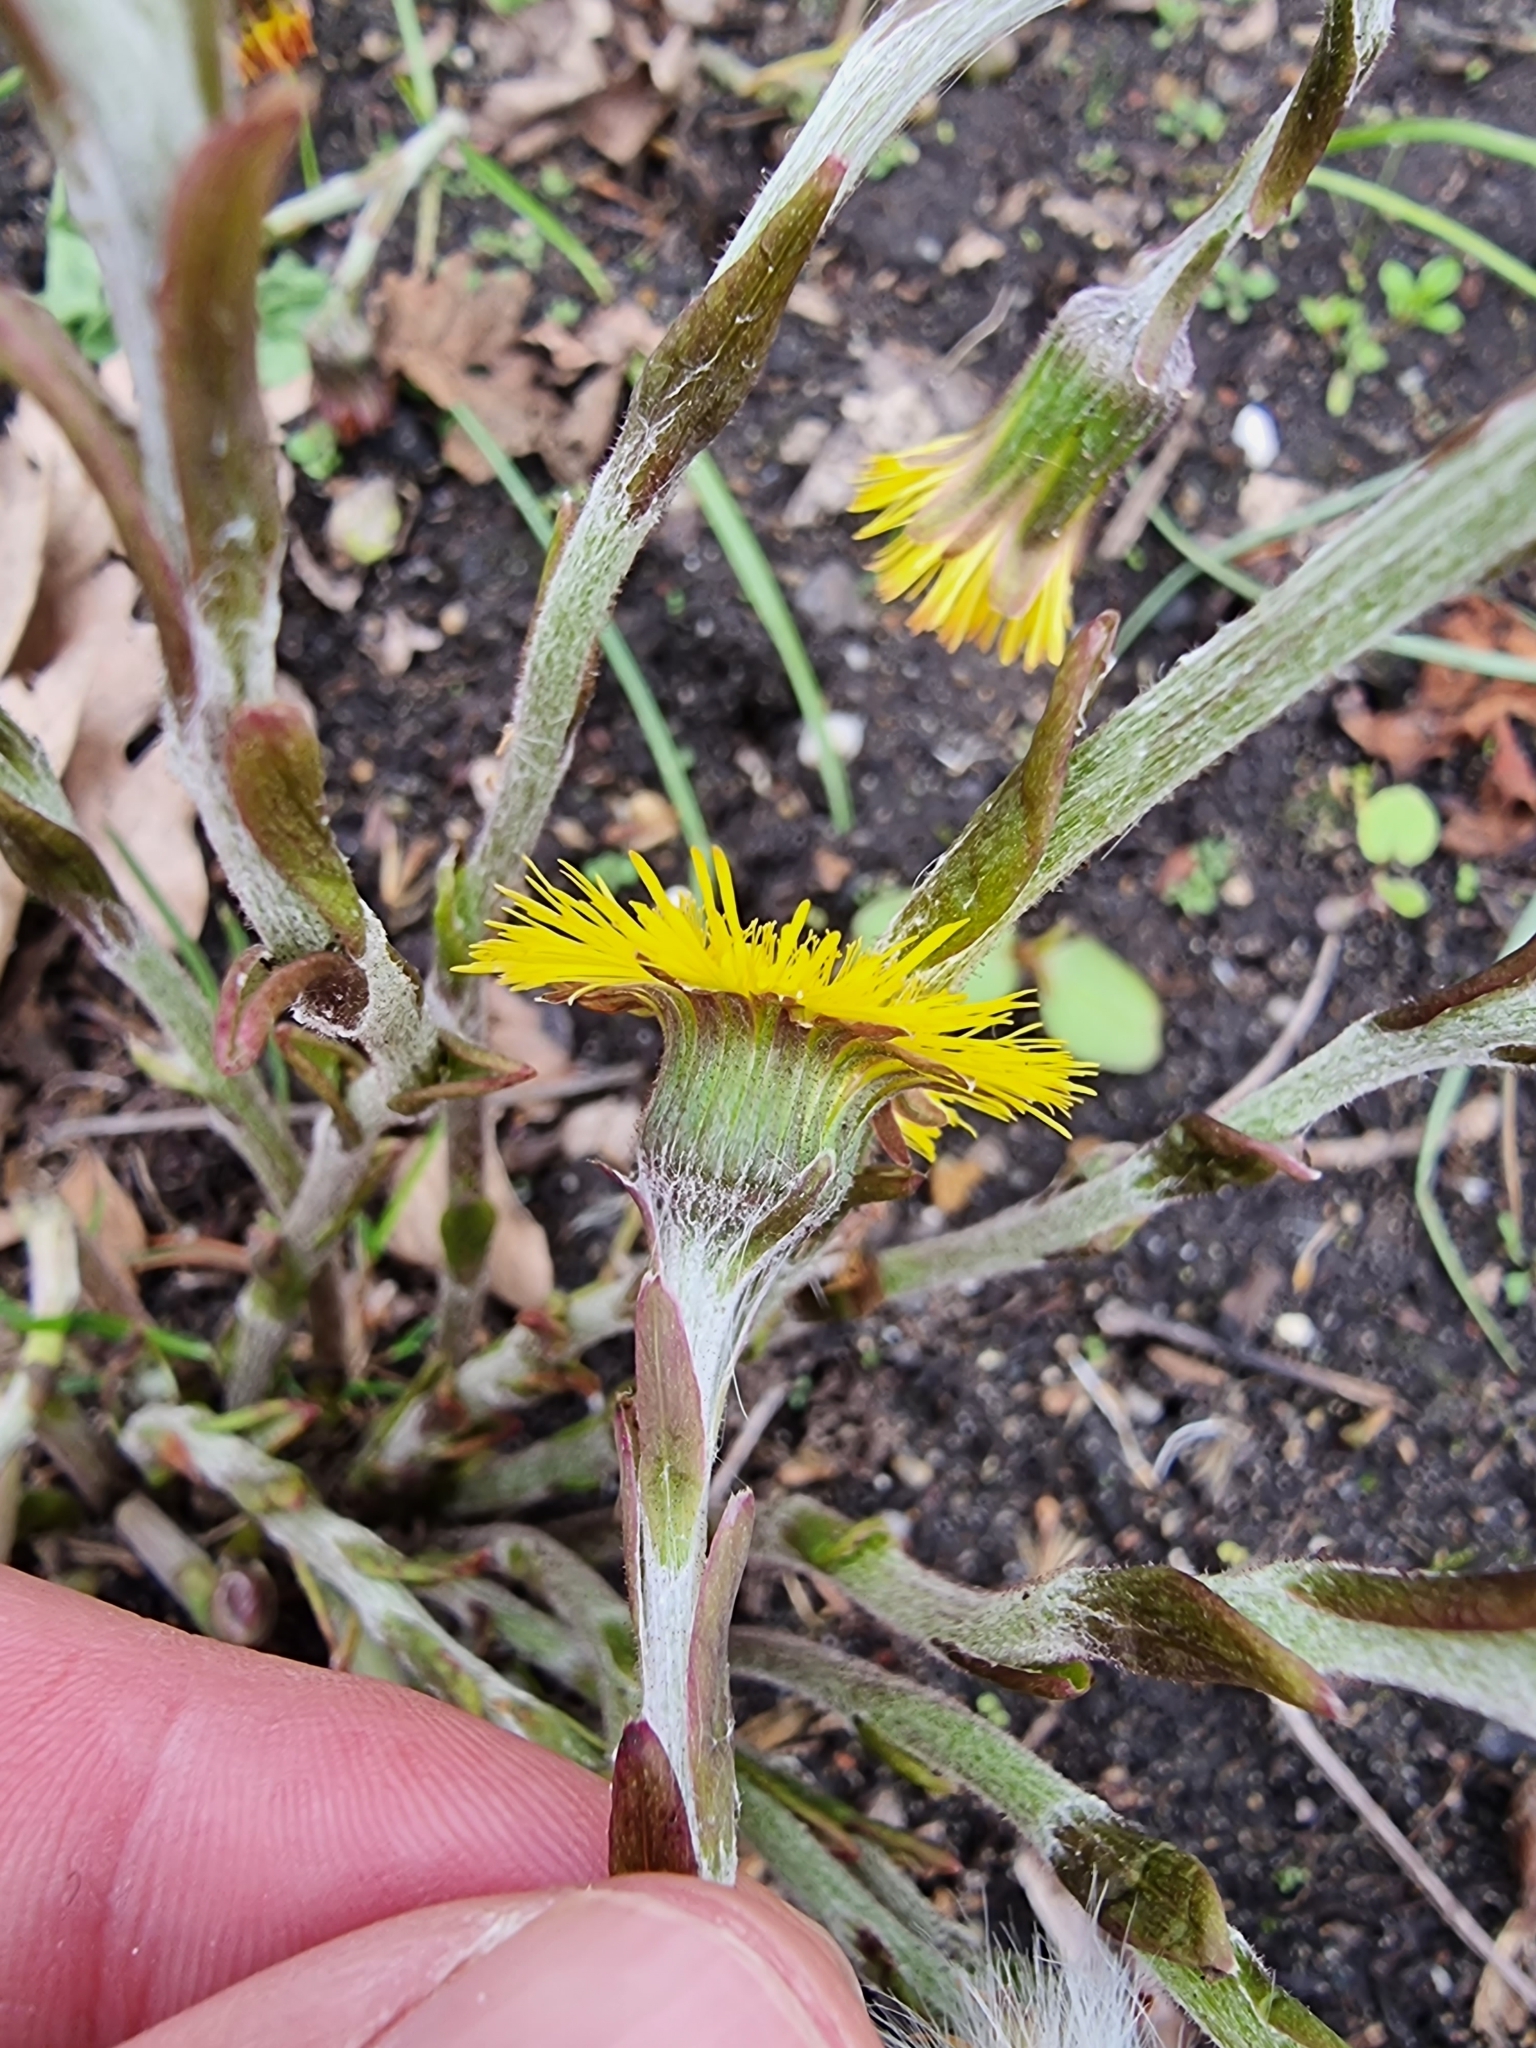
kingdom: Plantae
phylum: Tracheophyta
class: Magnoliopsida
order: Asterales
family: Asteraceae
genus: Tussilago
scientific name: Tussilago farfara
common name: Coltsfoot
